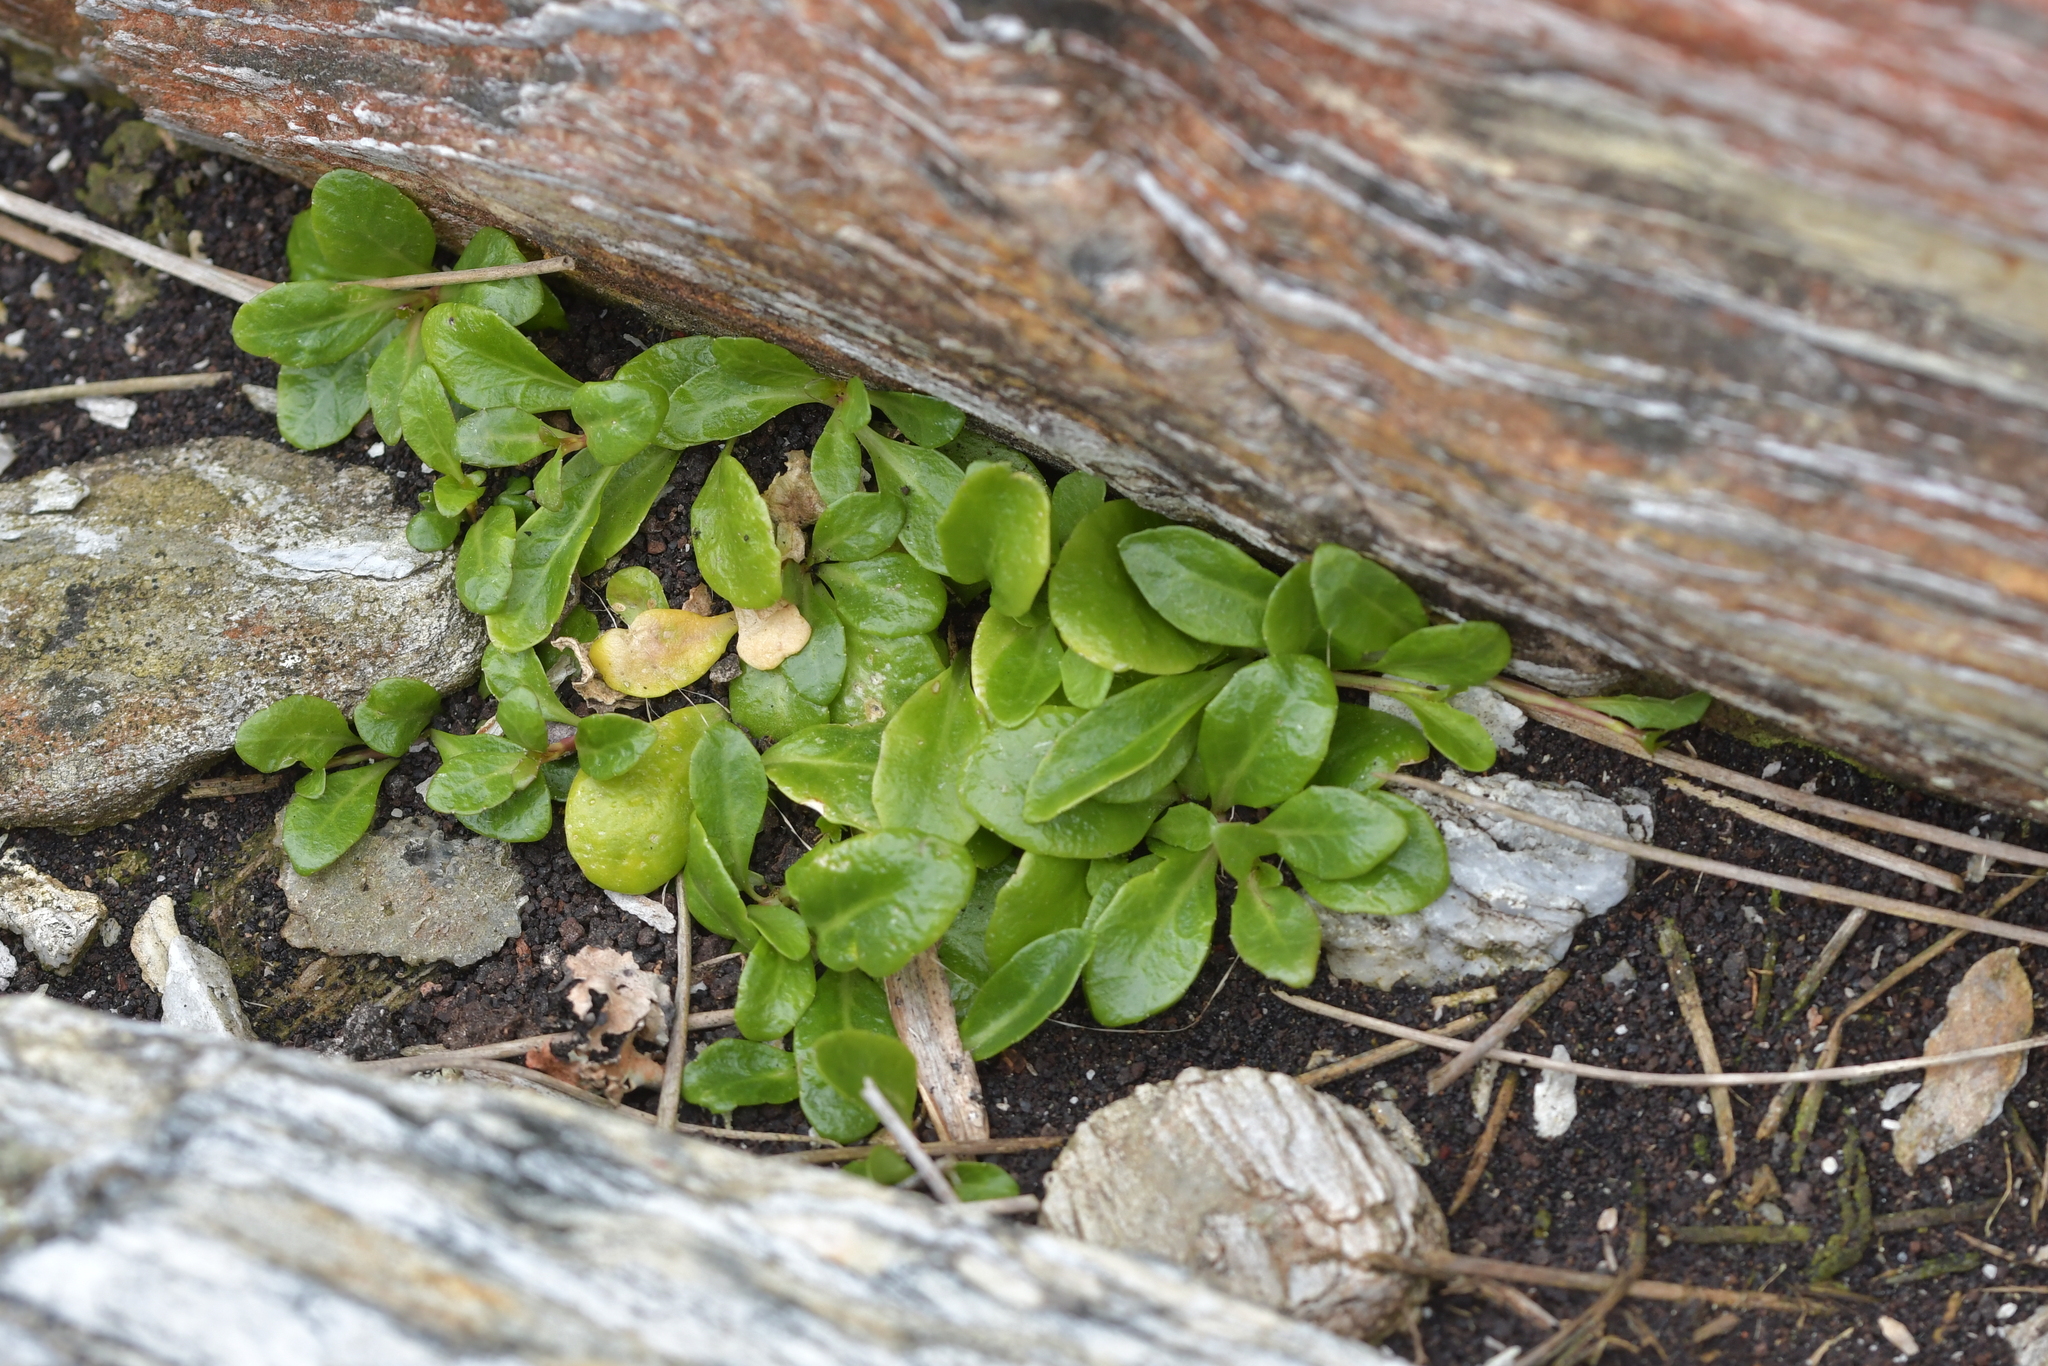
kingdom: Plantae
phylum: Tracheophyta
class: Magnoliopsida
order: Asterales
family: Campanulaceae
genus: Lobelia
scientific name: Lobelia anceps
